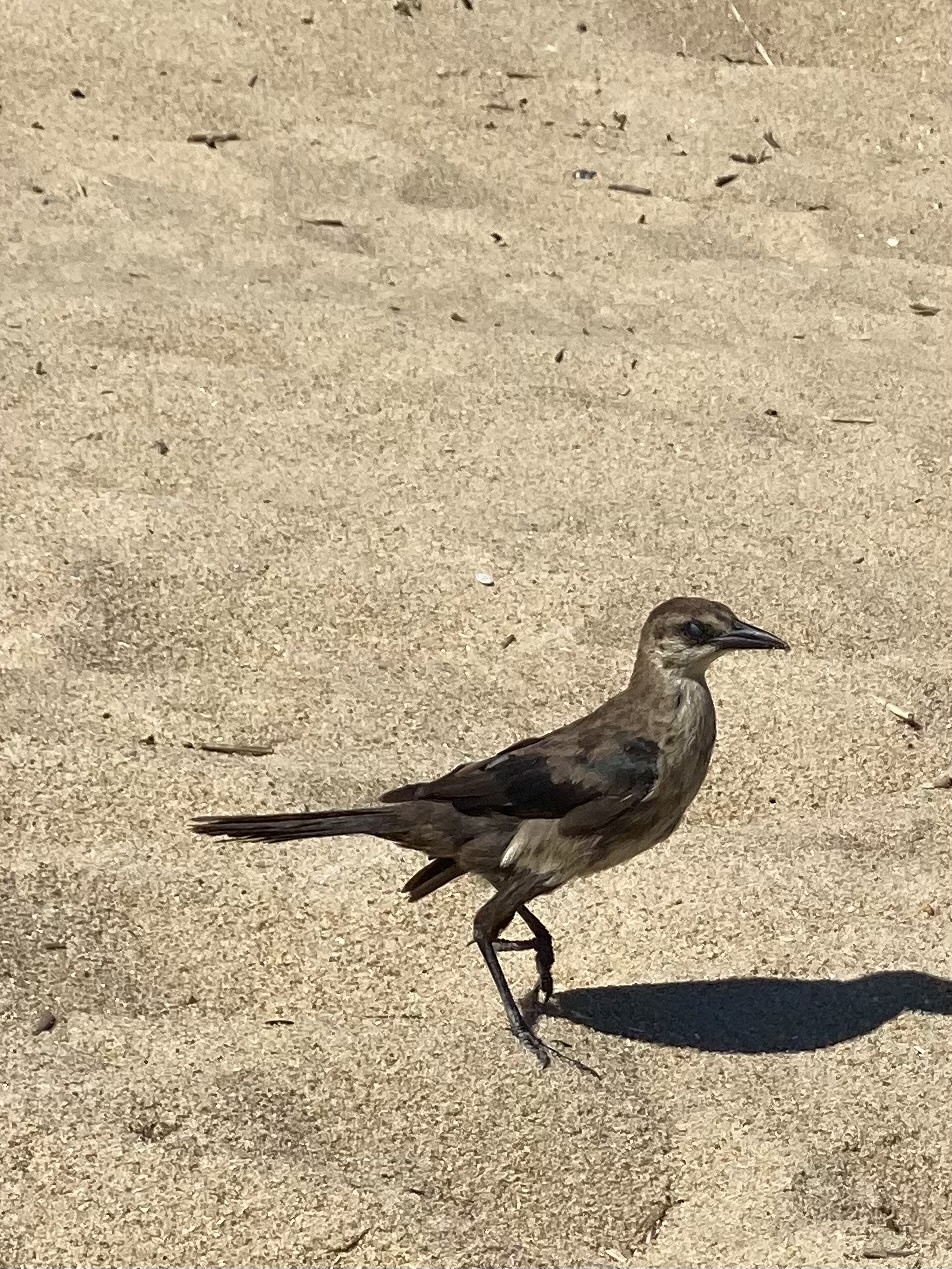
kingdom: Animalia
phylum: Chordata
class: Aves
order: Passeriformes
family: Icteridae
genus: Quiscalus
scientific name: Quiscalus major
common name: Boat-tailed grackle
